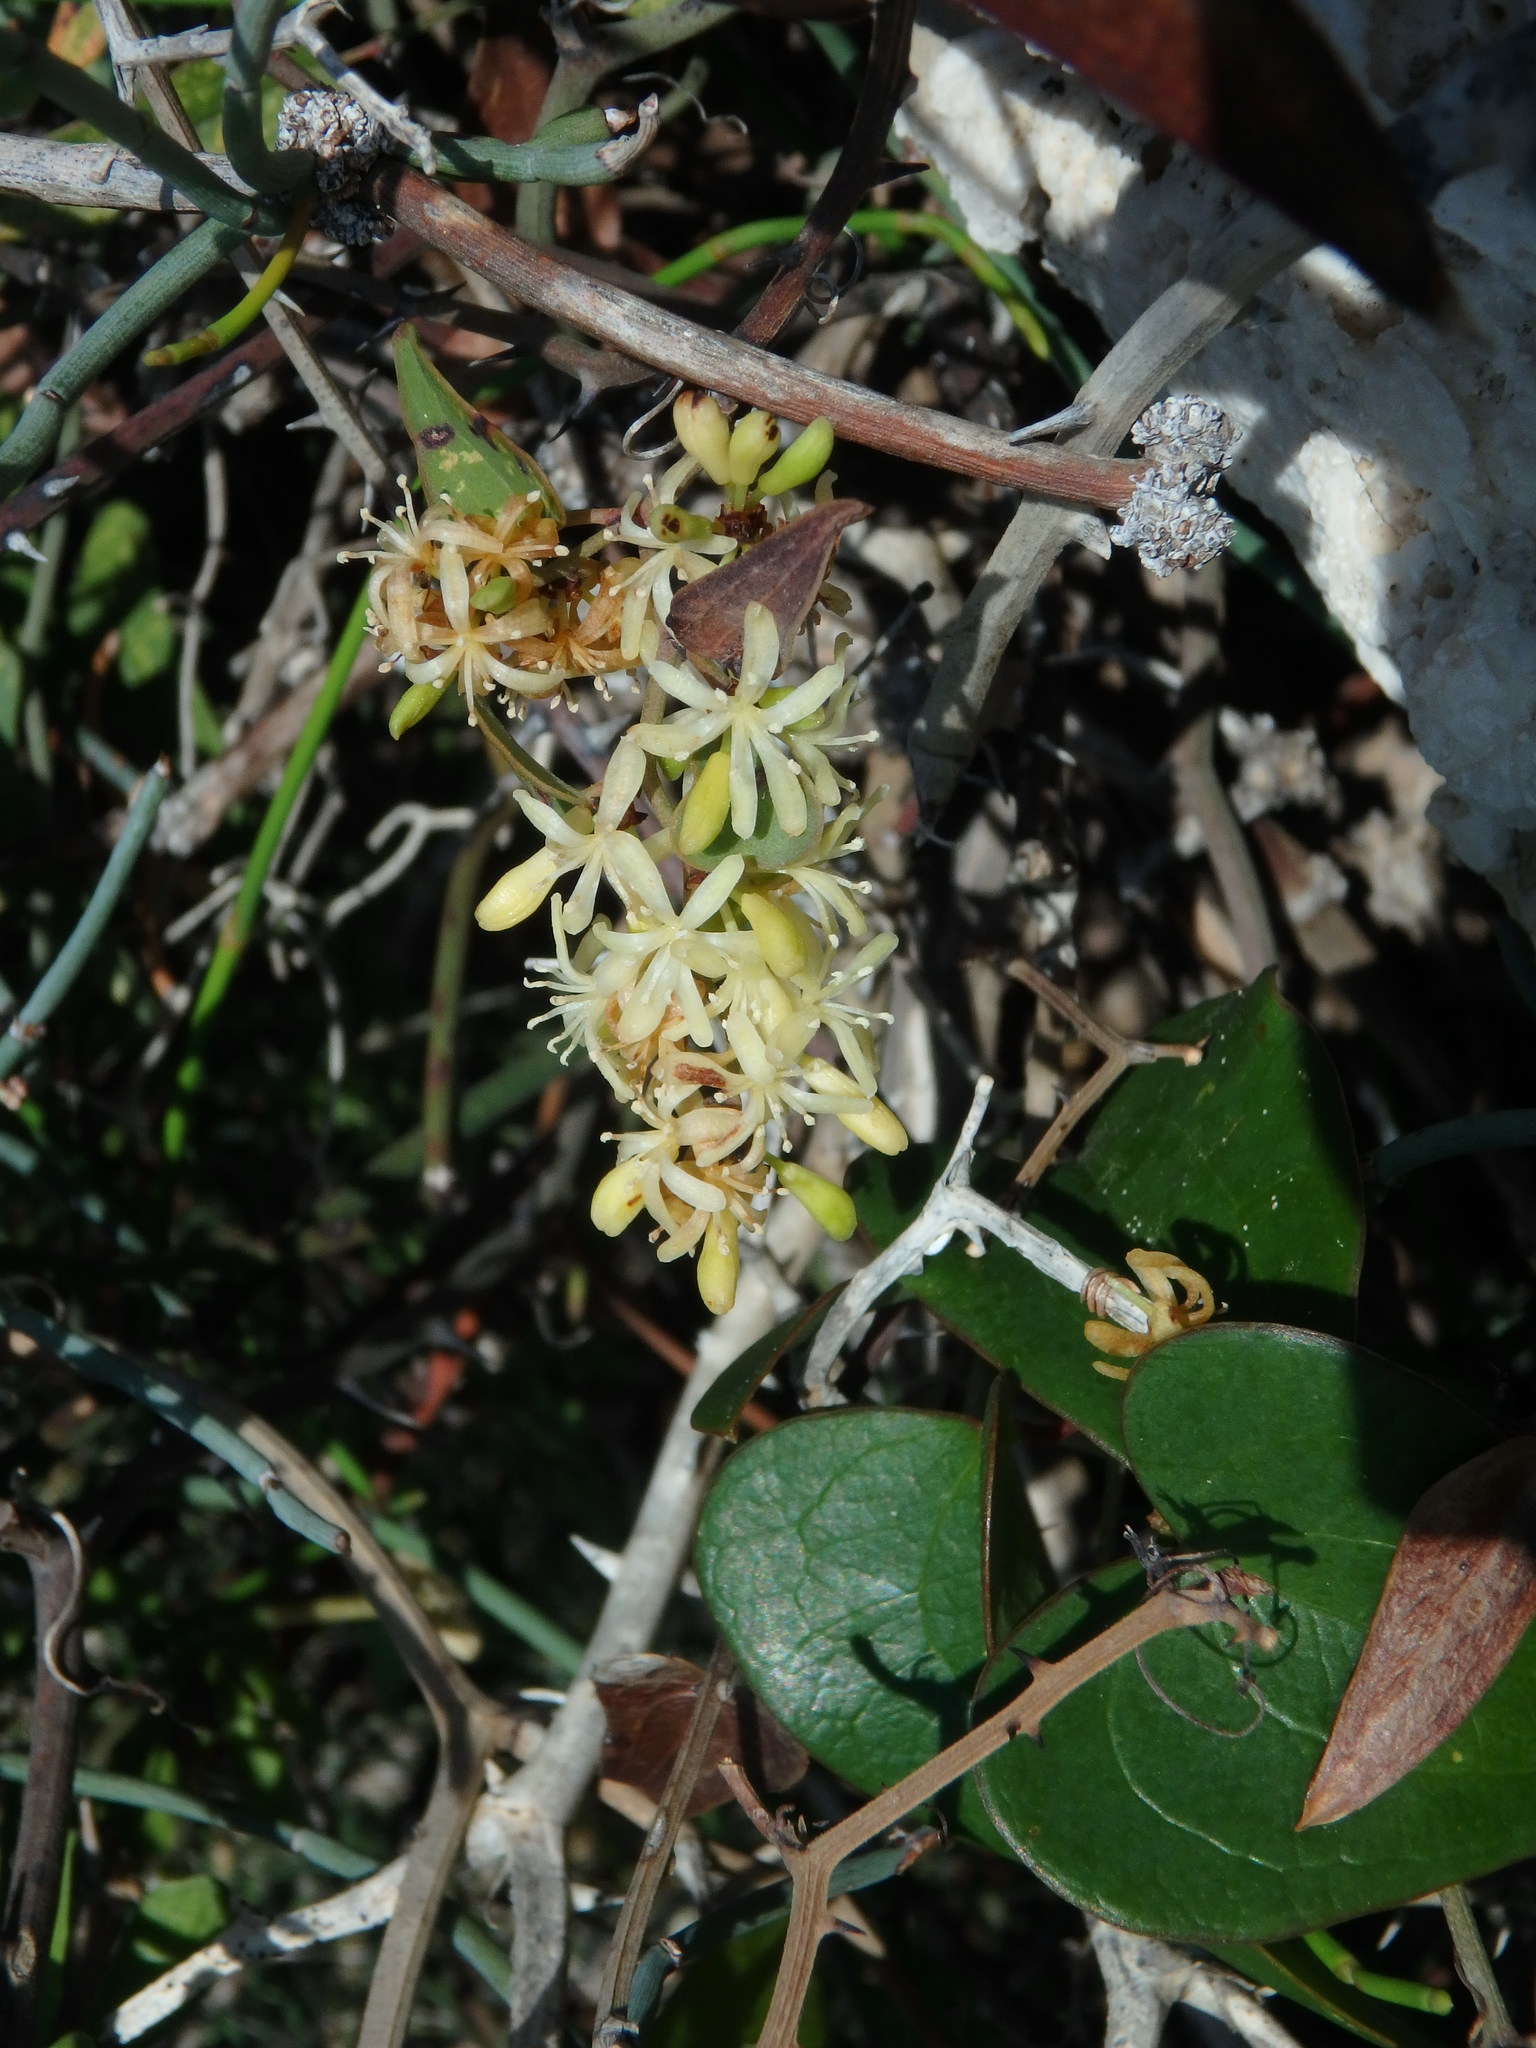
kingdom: Plantae
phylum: Tracheophyta
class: Liliopsida
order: Liliales
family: Smilacaceae
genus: Smilax
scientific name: Smilax aspera
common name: Common smilax
